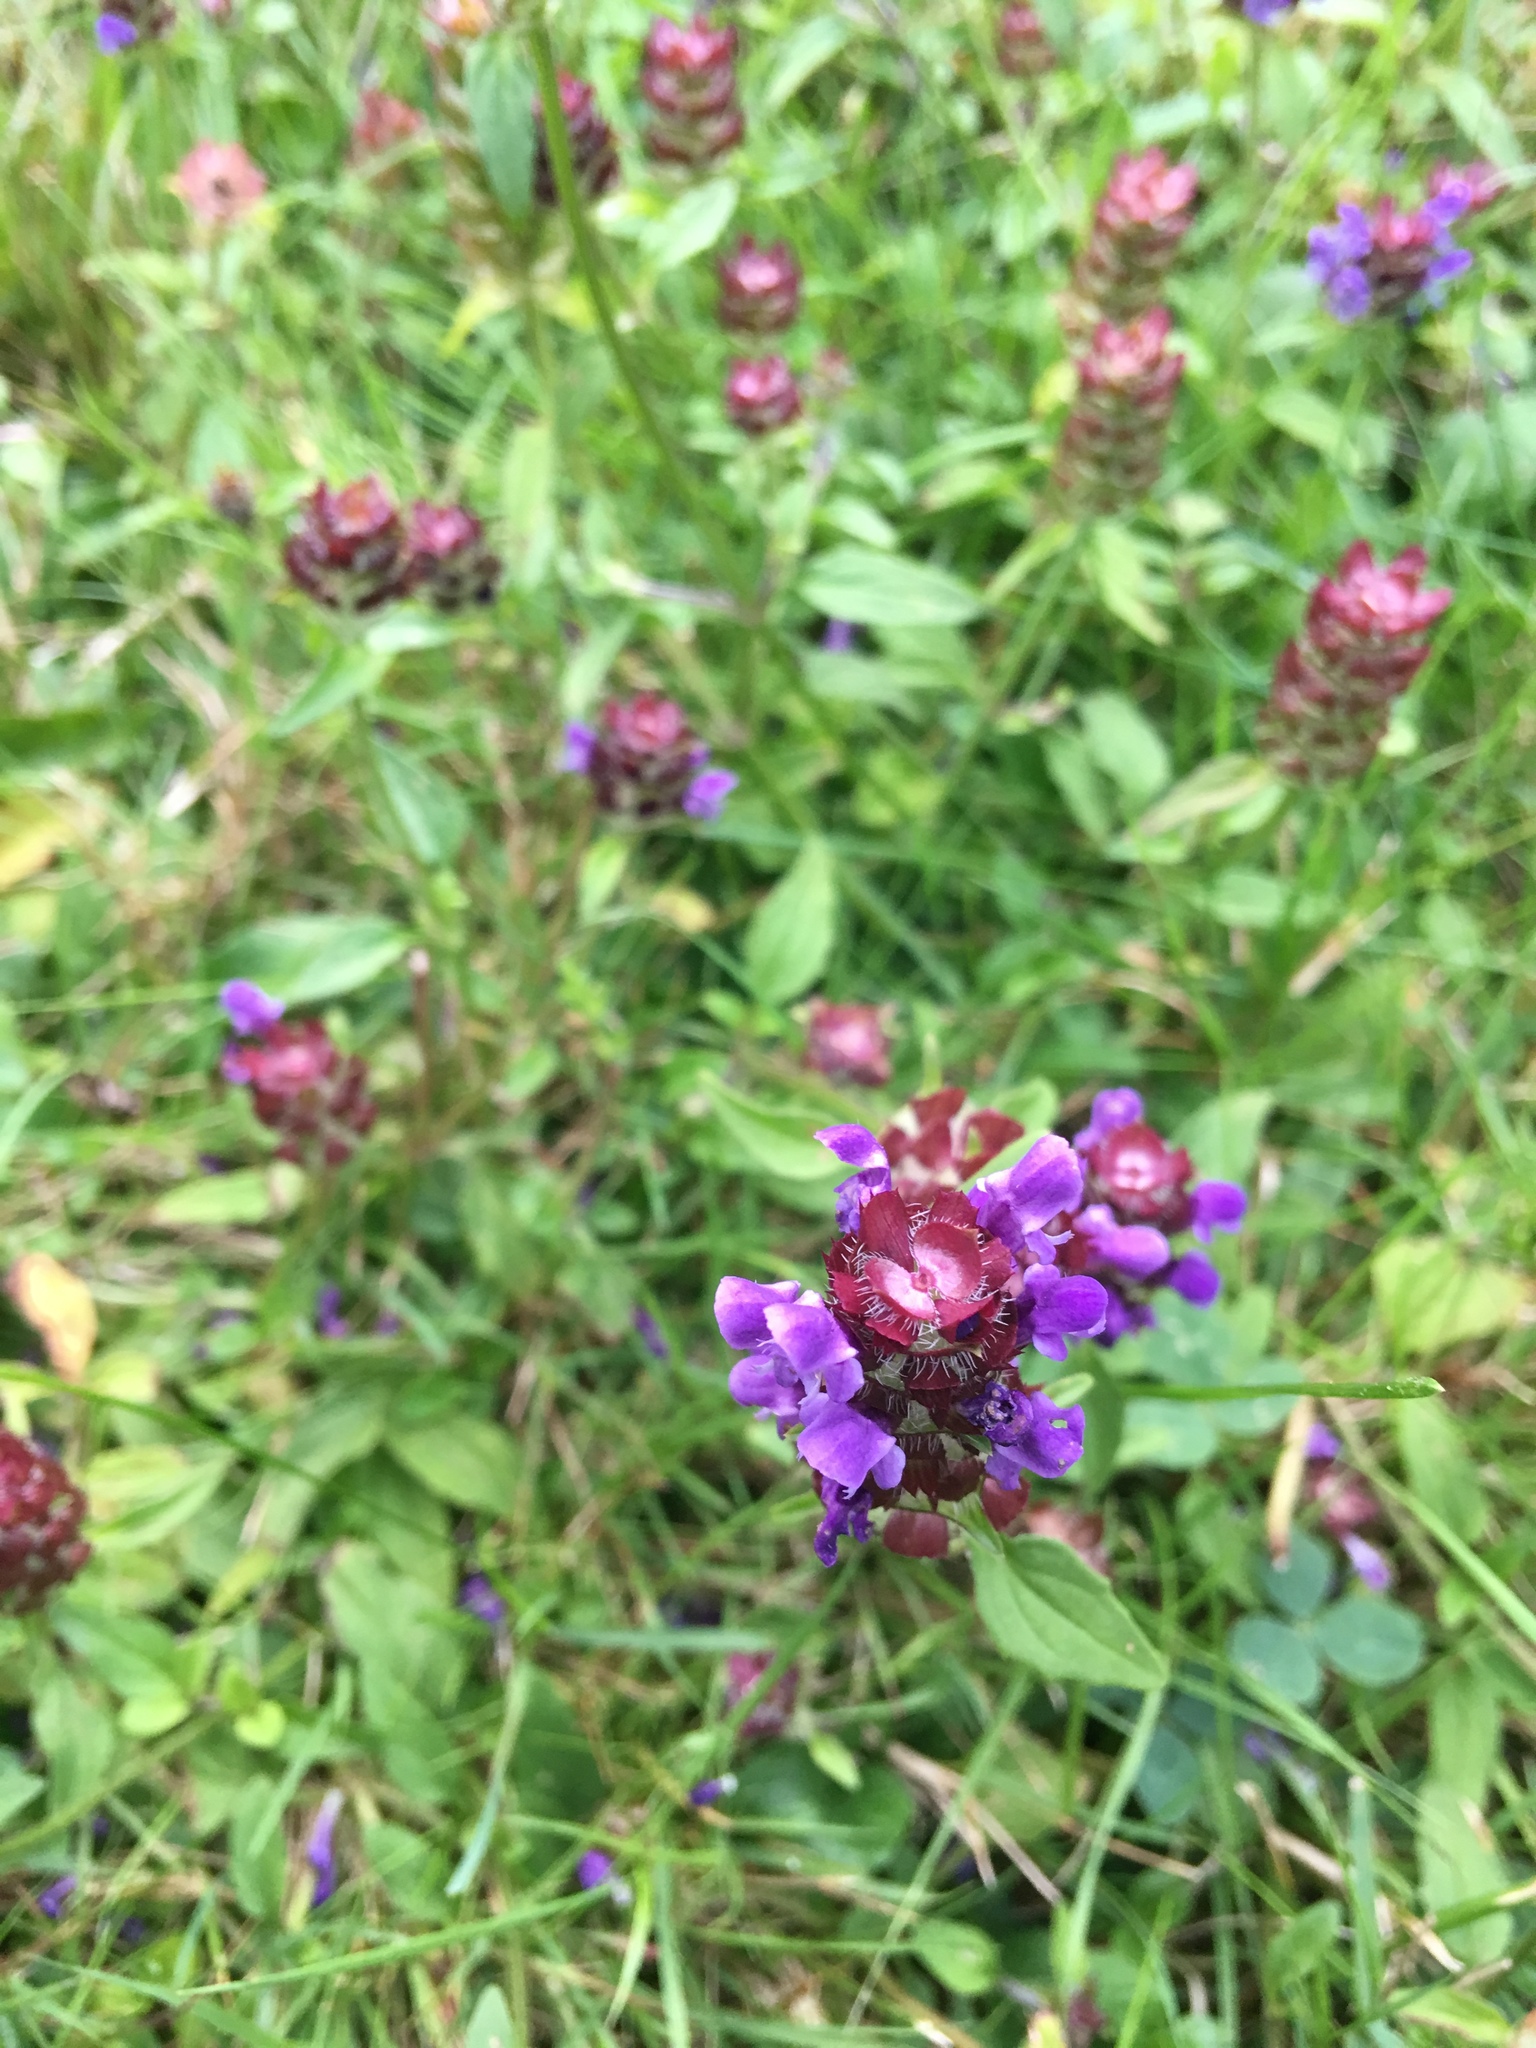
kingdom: Plantae
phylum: Tracheophyta
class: Magnoliopsida
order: Lamiales
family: Lamiaceae
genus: Prunella
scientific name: Prunella vulgaris
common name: Heal-all
